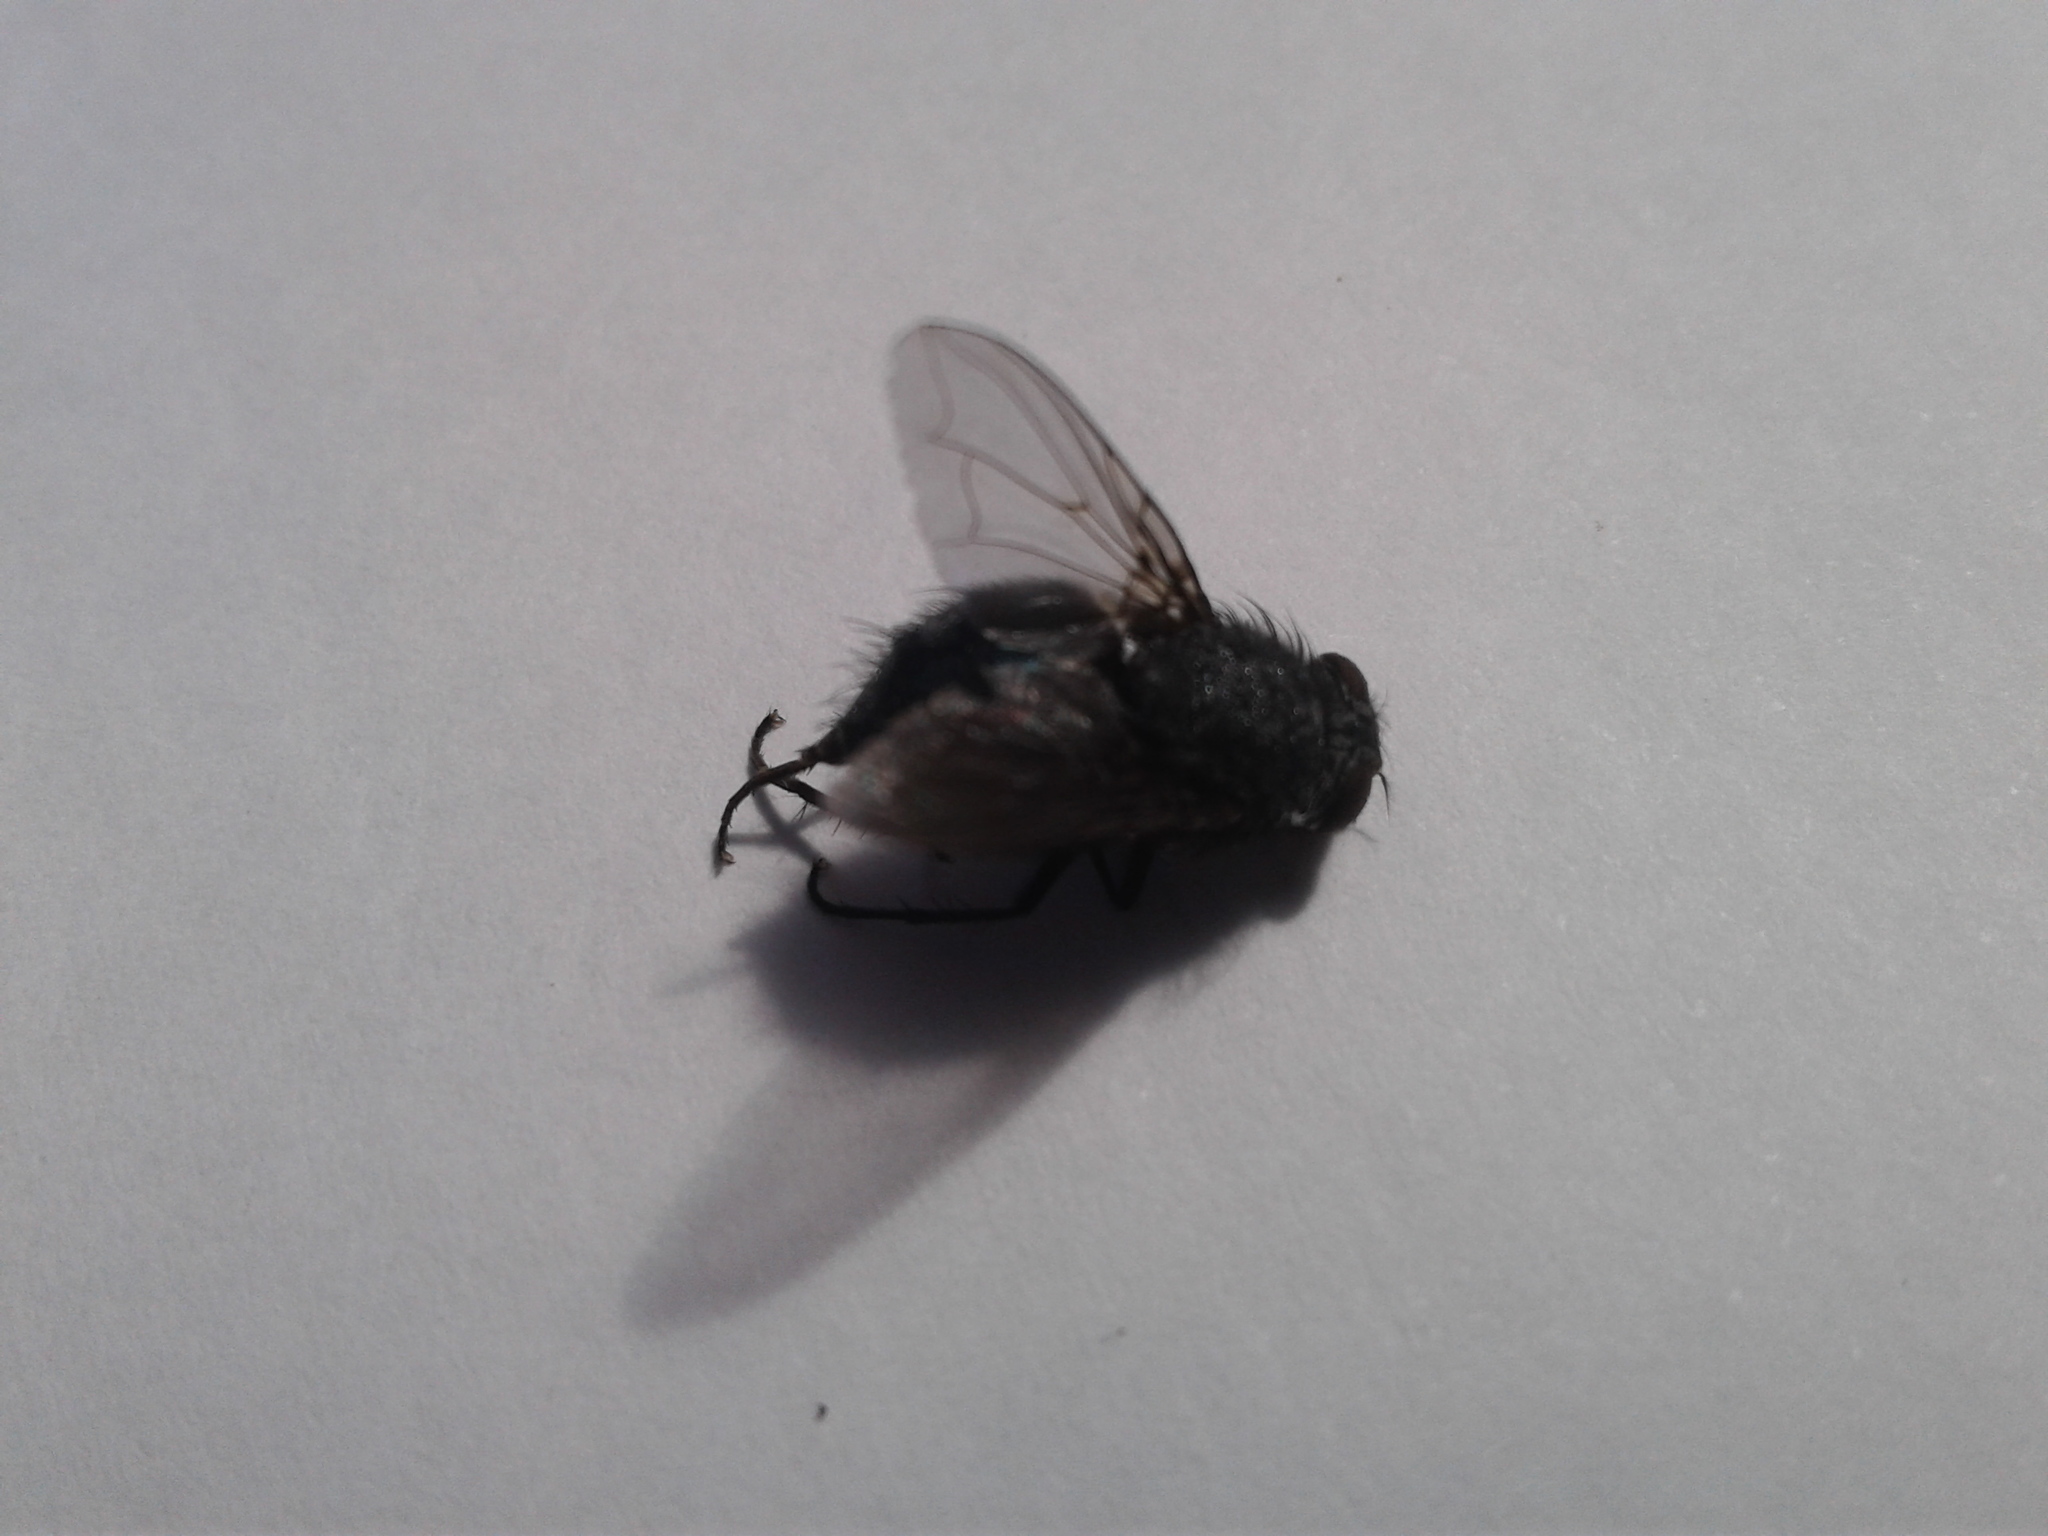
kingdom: Animalia
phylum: Arthropoda
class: Insecta
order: Diptera
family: Calliphoridae
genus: Calliphora
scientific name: Calliphora quadrimaculata
